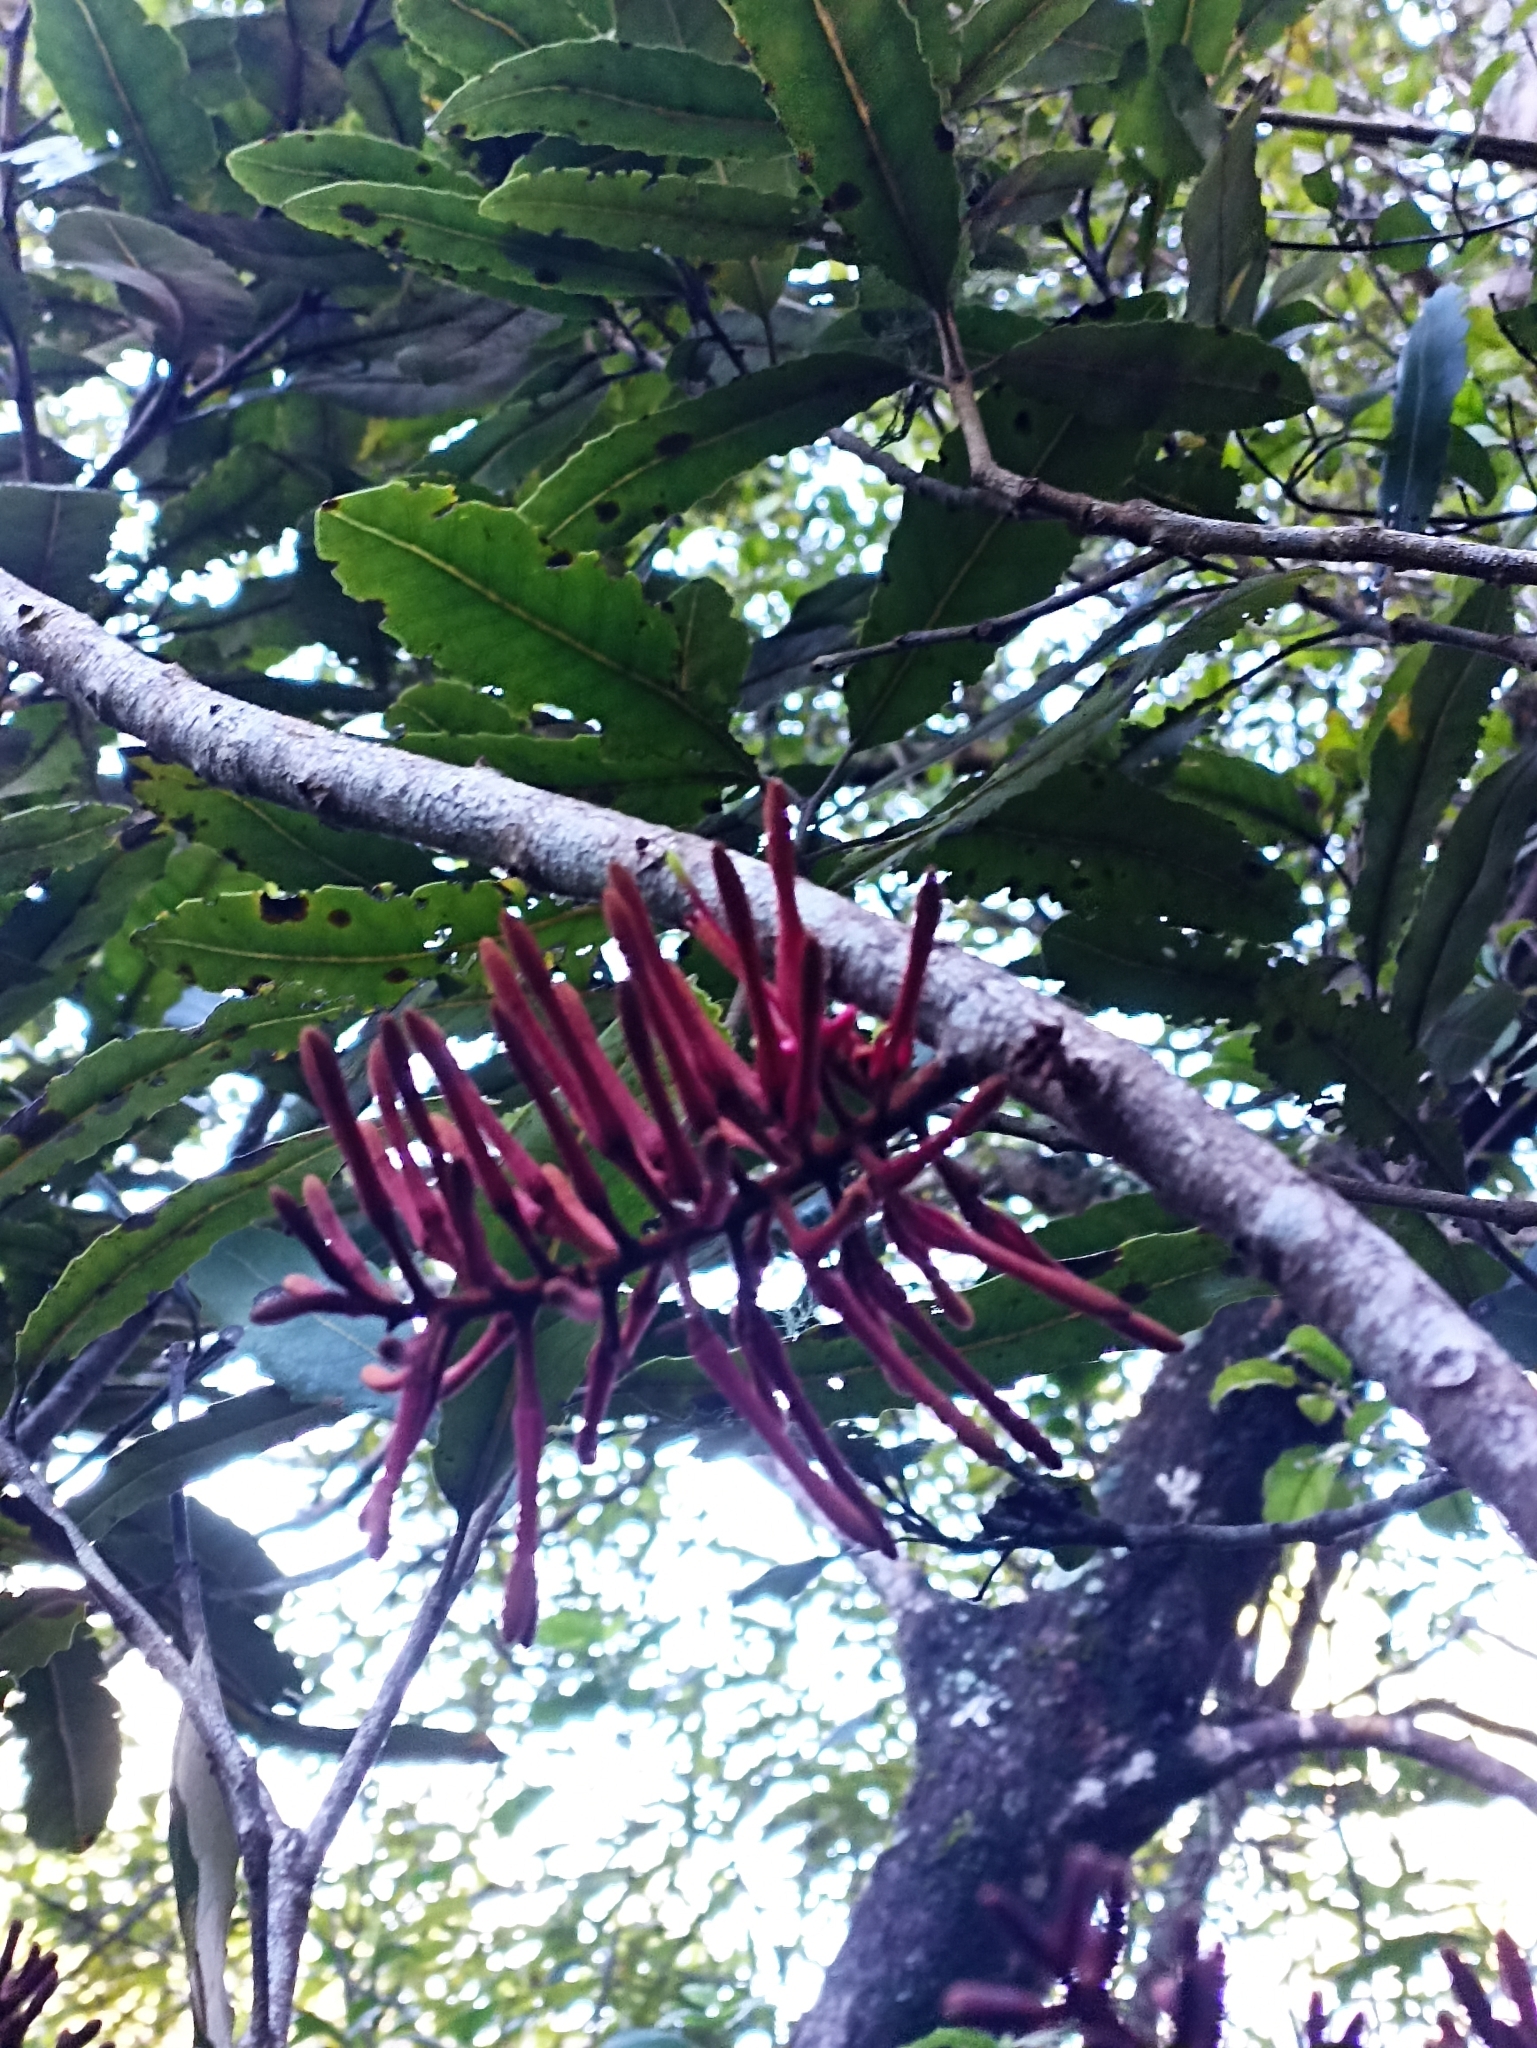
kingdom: Plantae
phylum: Tracheophyta
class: Magnoliopsida
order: Proteales
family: Proteaceae
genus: Knightia
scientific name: Knightia excelsa
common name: New zealand-honeysuckle
